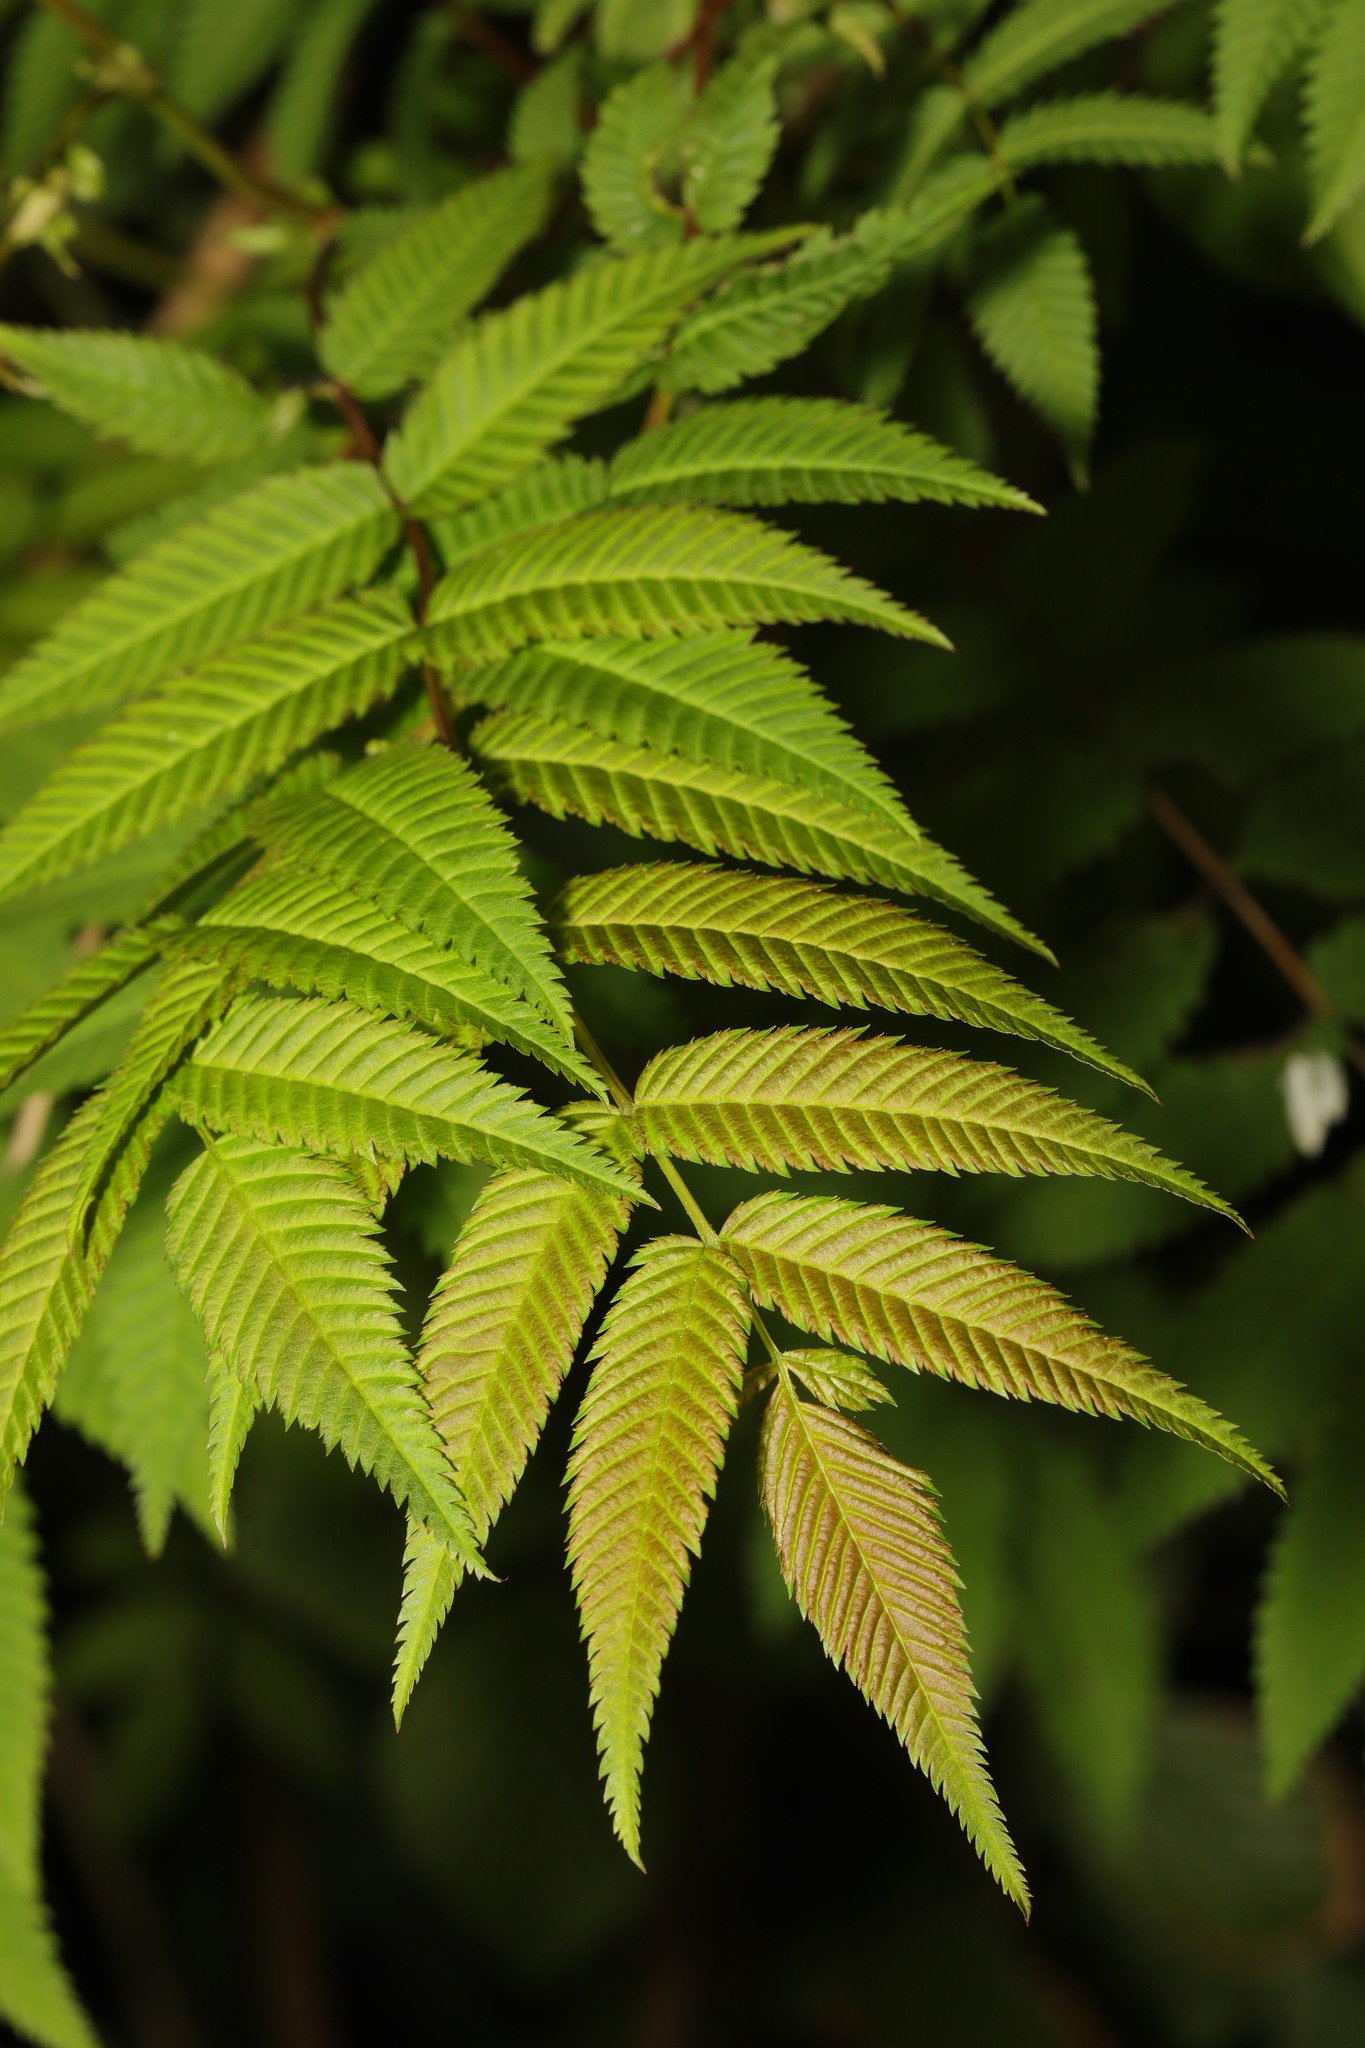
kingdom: Plantae
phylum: Tracheophyta
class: Magnoliopsida
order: Rosales
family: Rosaceae
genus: Sorbaria
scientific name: Sorbaria sorbifolia
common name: False spiraea
